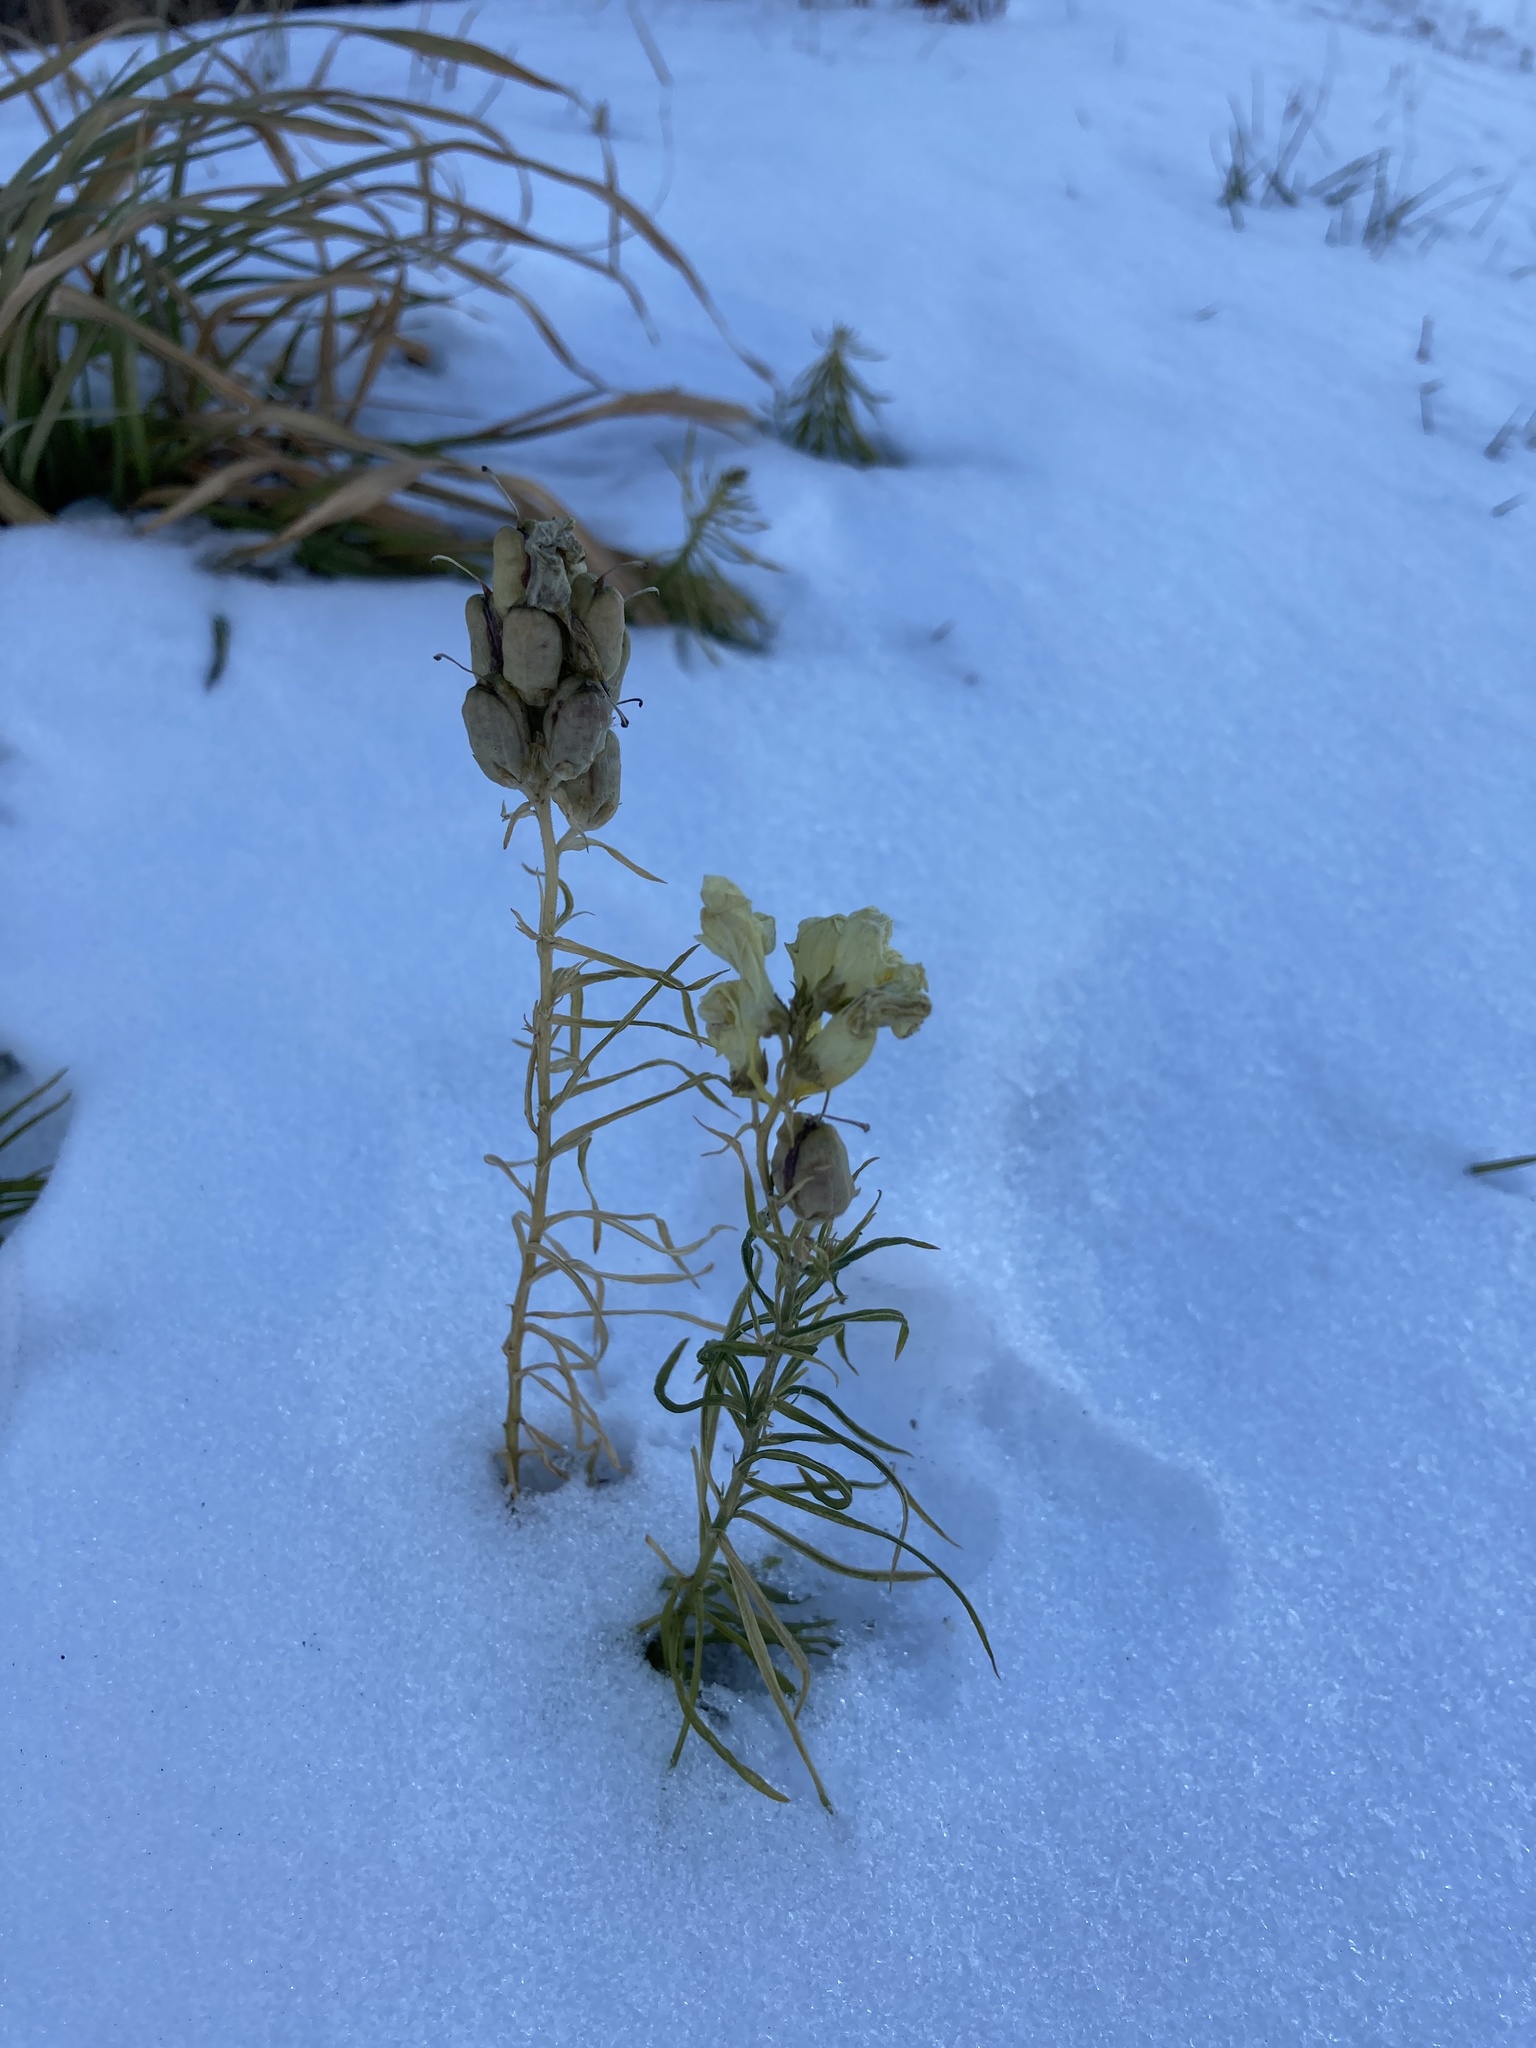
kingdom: Plantae
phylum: Tracheophyta
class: Magnoliopsida
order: Lamiales
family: Plantaginaceae
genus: Linaria
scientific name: Linaria vulgaris
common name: Butter and eggs
